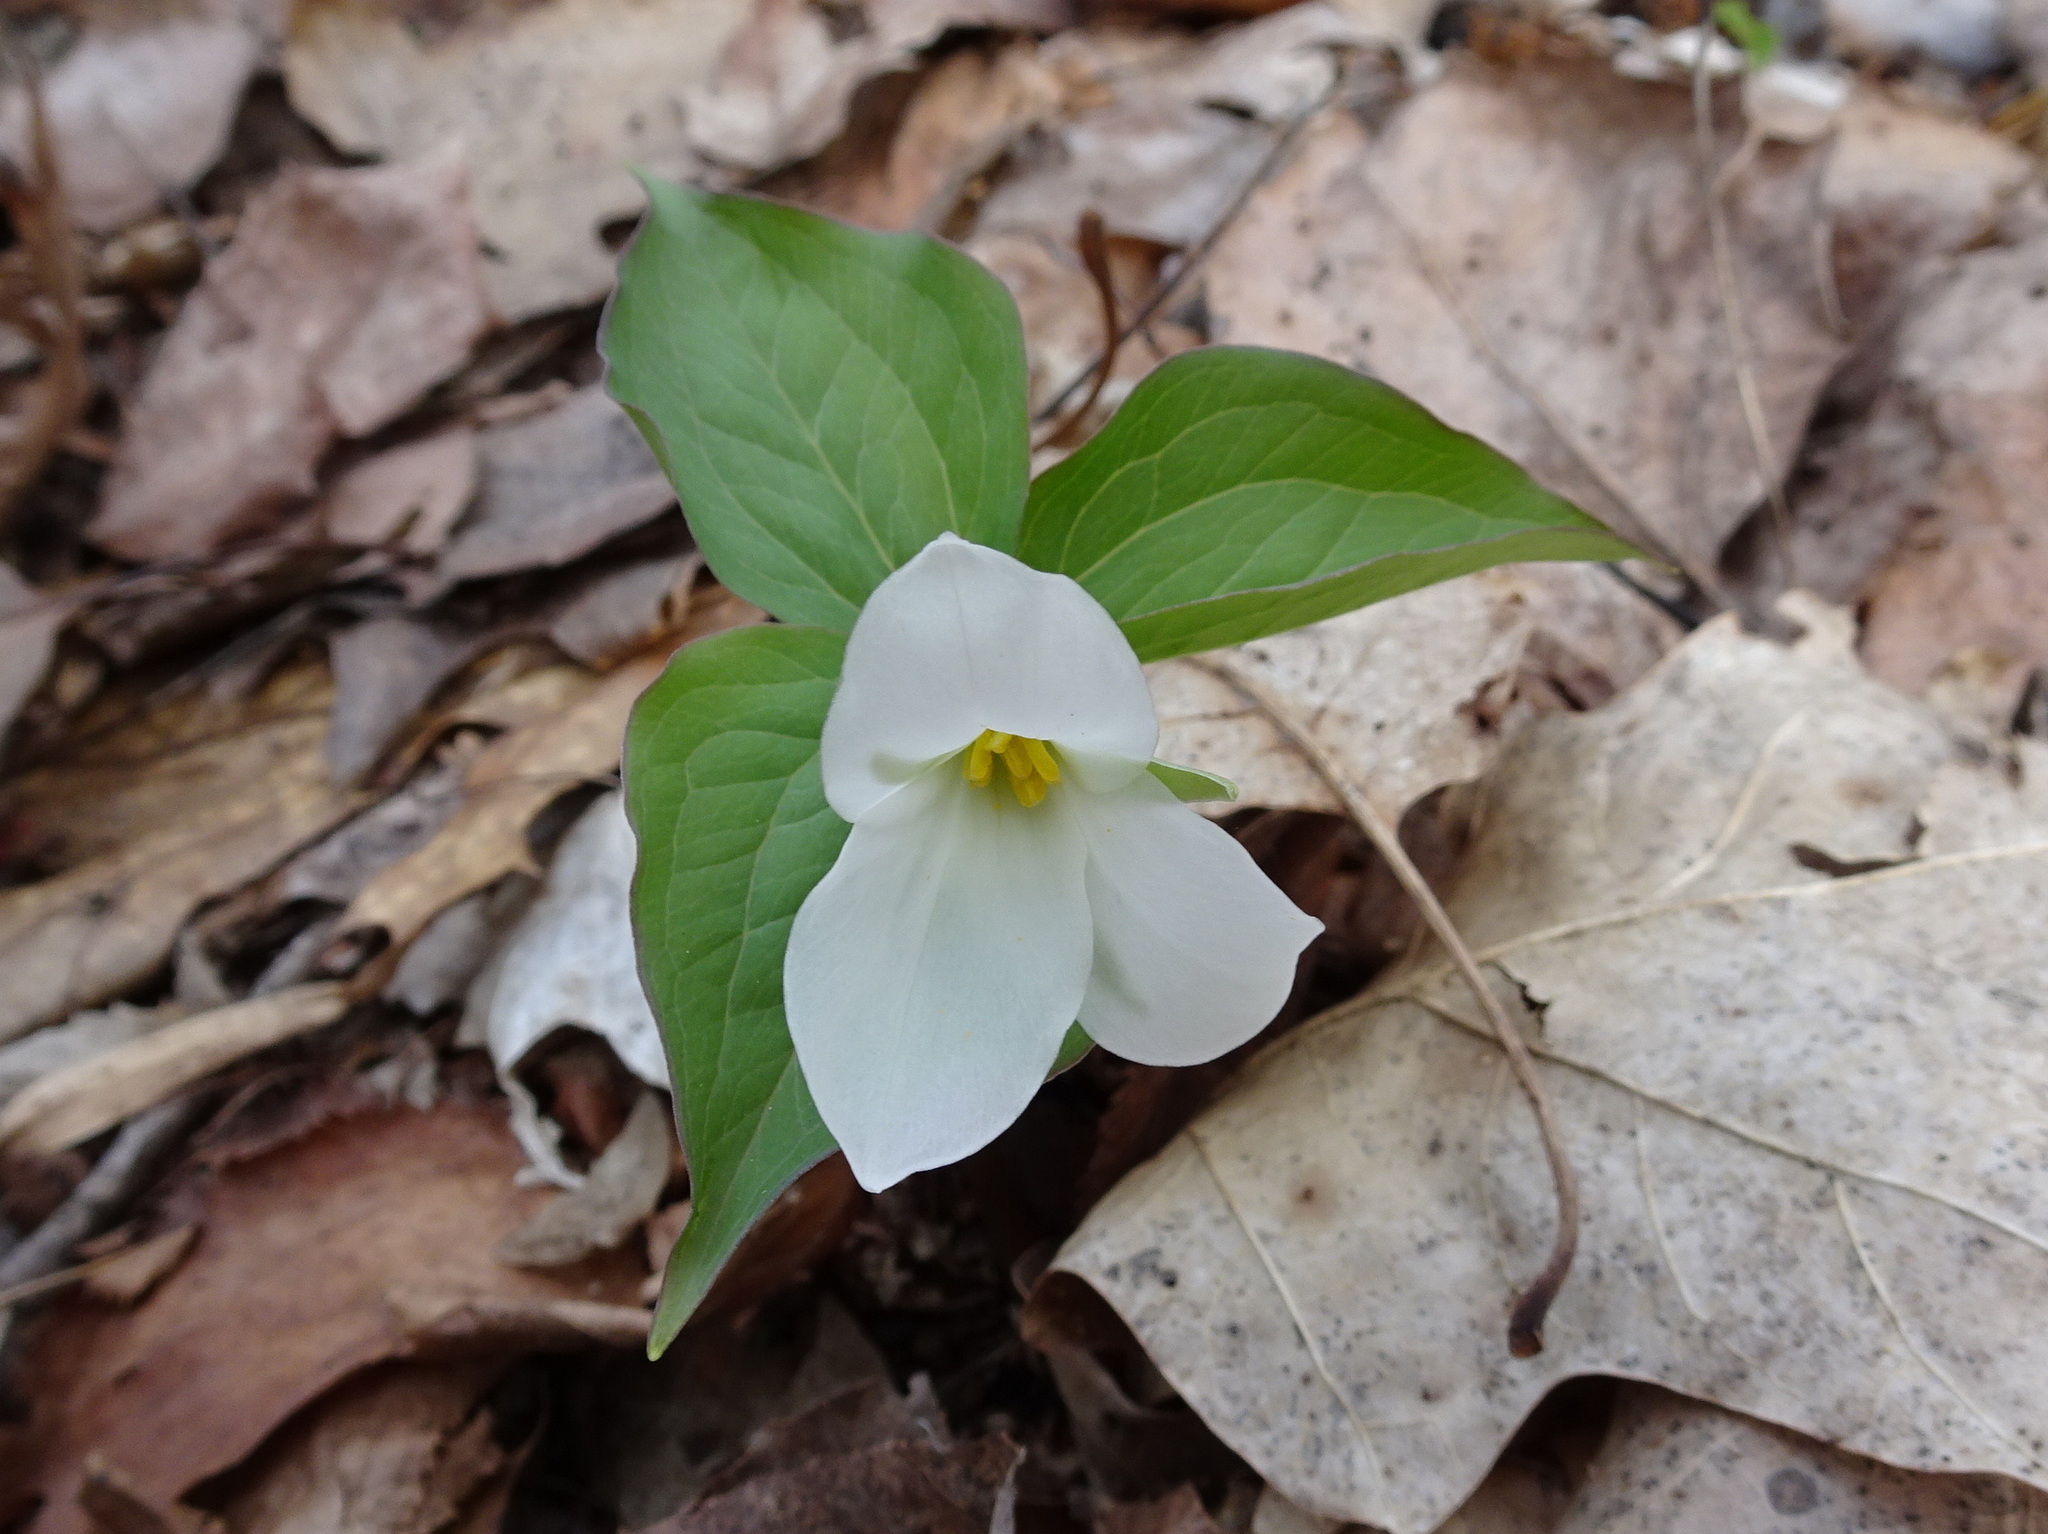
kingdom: Plantae
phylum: Tracheophyta
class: Liliopsida
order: Liliales
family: Melanthiaceae
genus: Trillium
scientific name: Trillium grandiflorum
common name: Great white trillium
